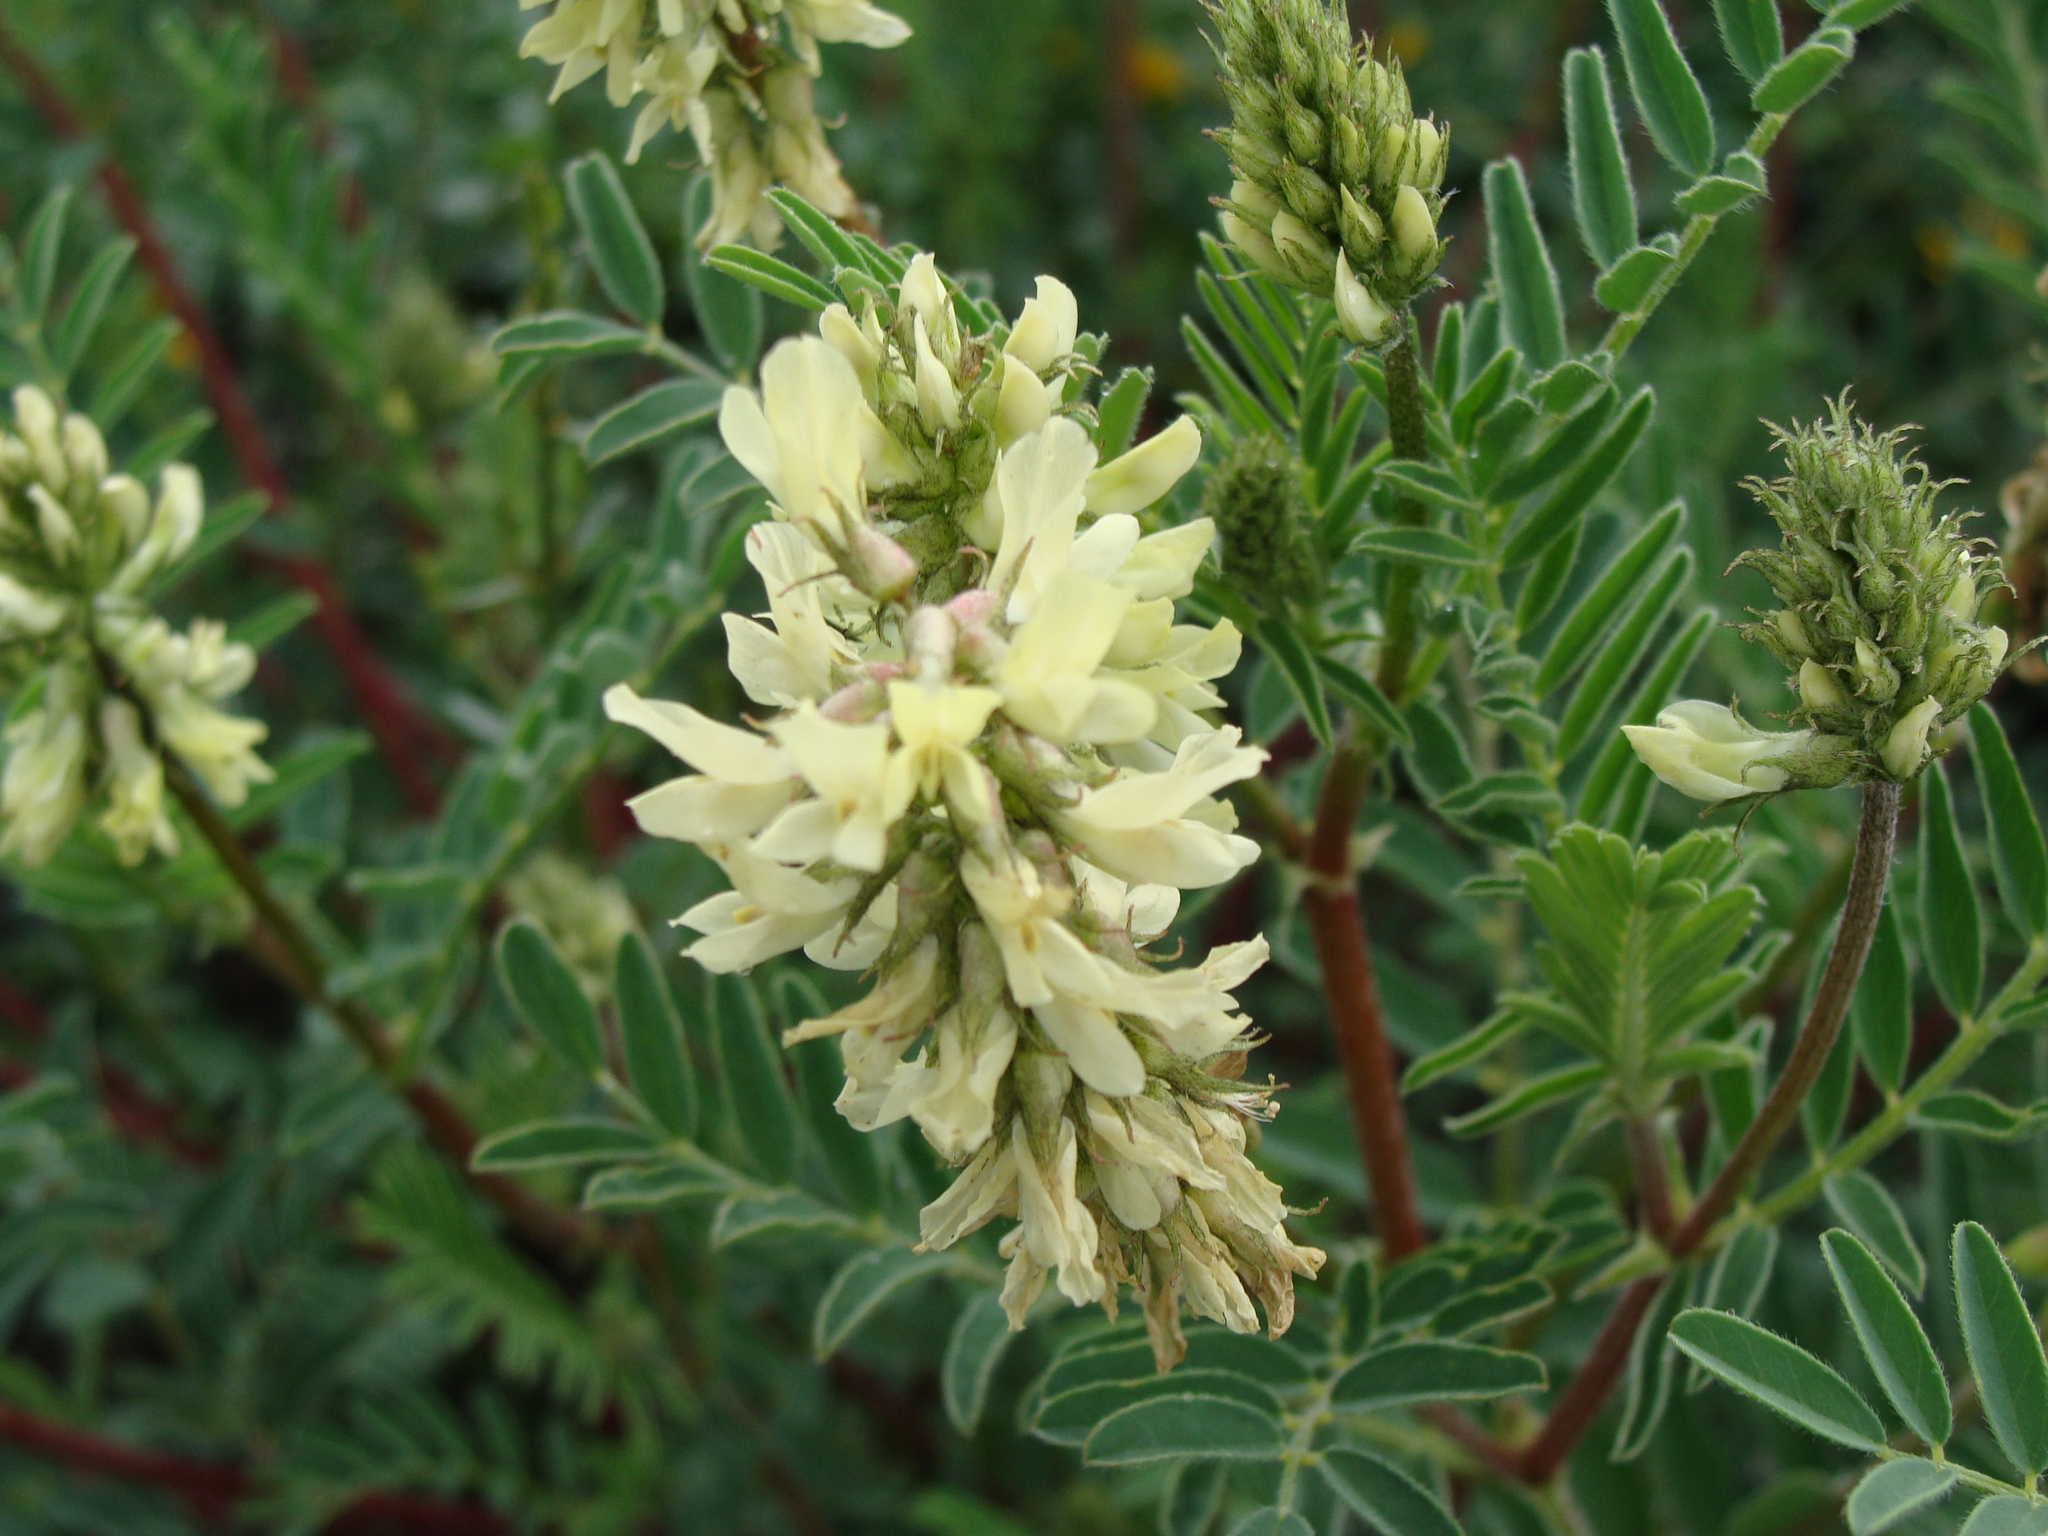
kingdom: Plantae
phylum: Tracheophyta
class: Magnoliopsida
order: Fabales
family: Fabaceae
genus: Astragalus
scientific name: Astragalus radicans
